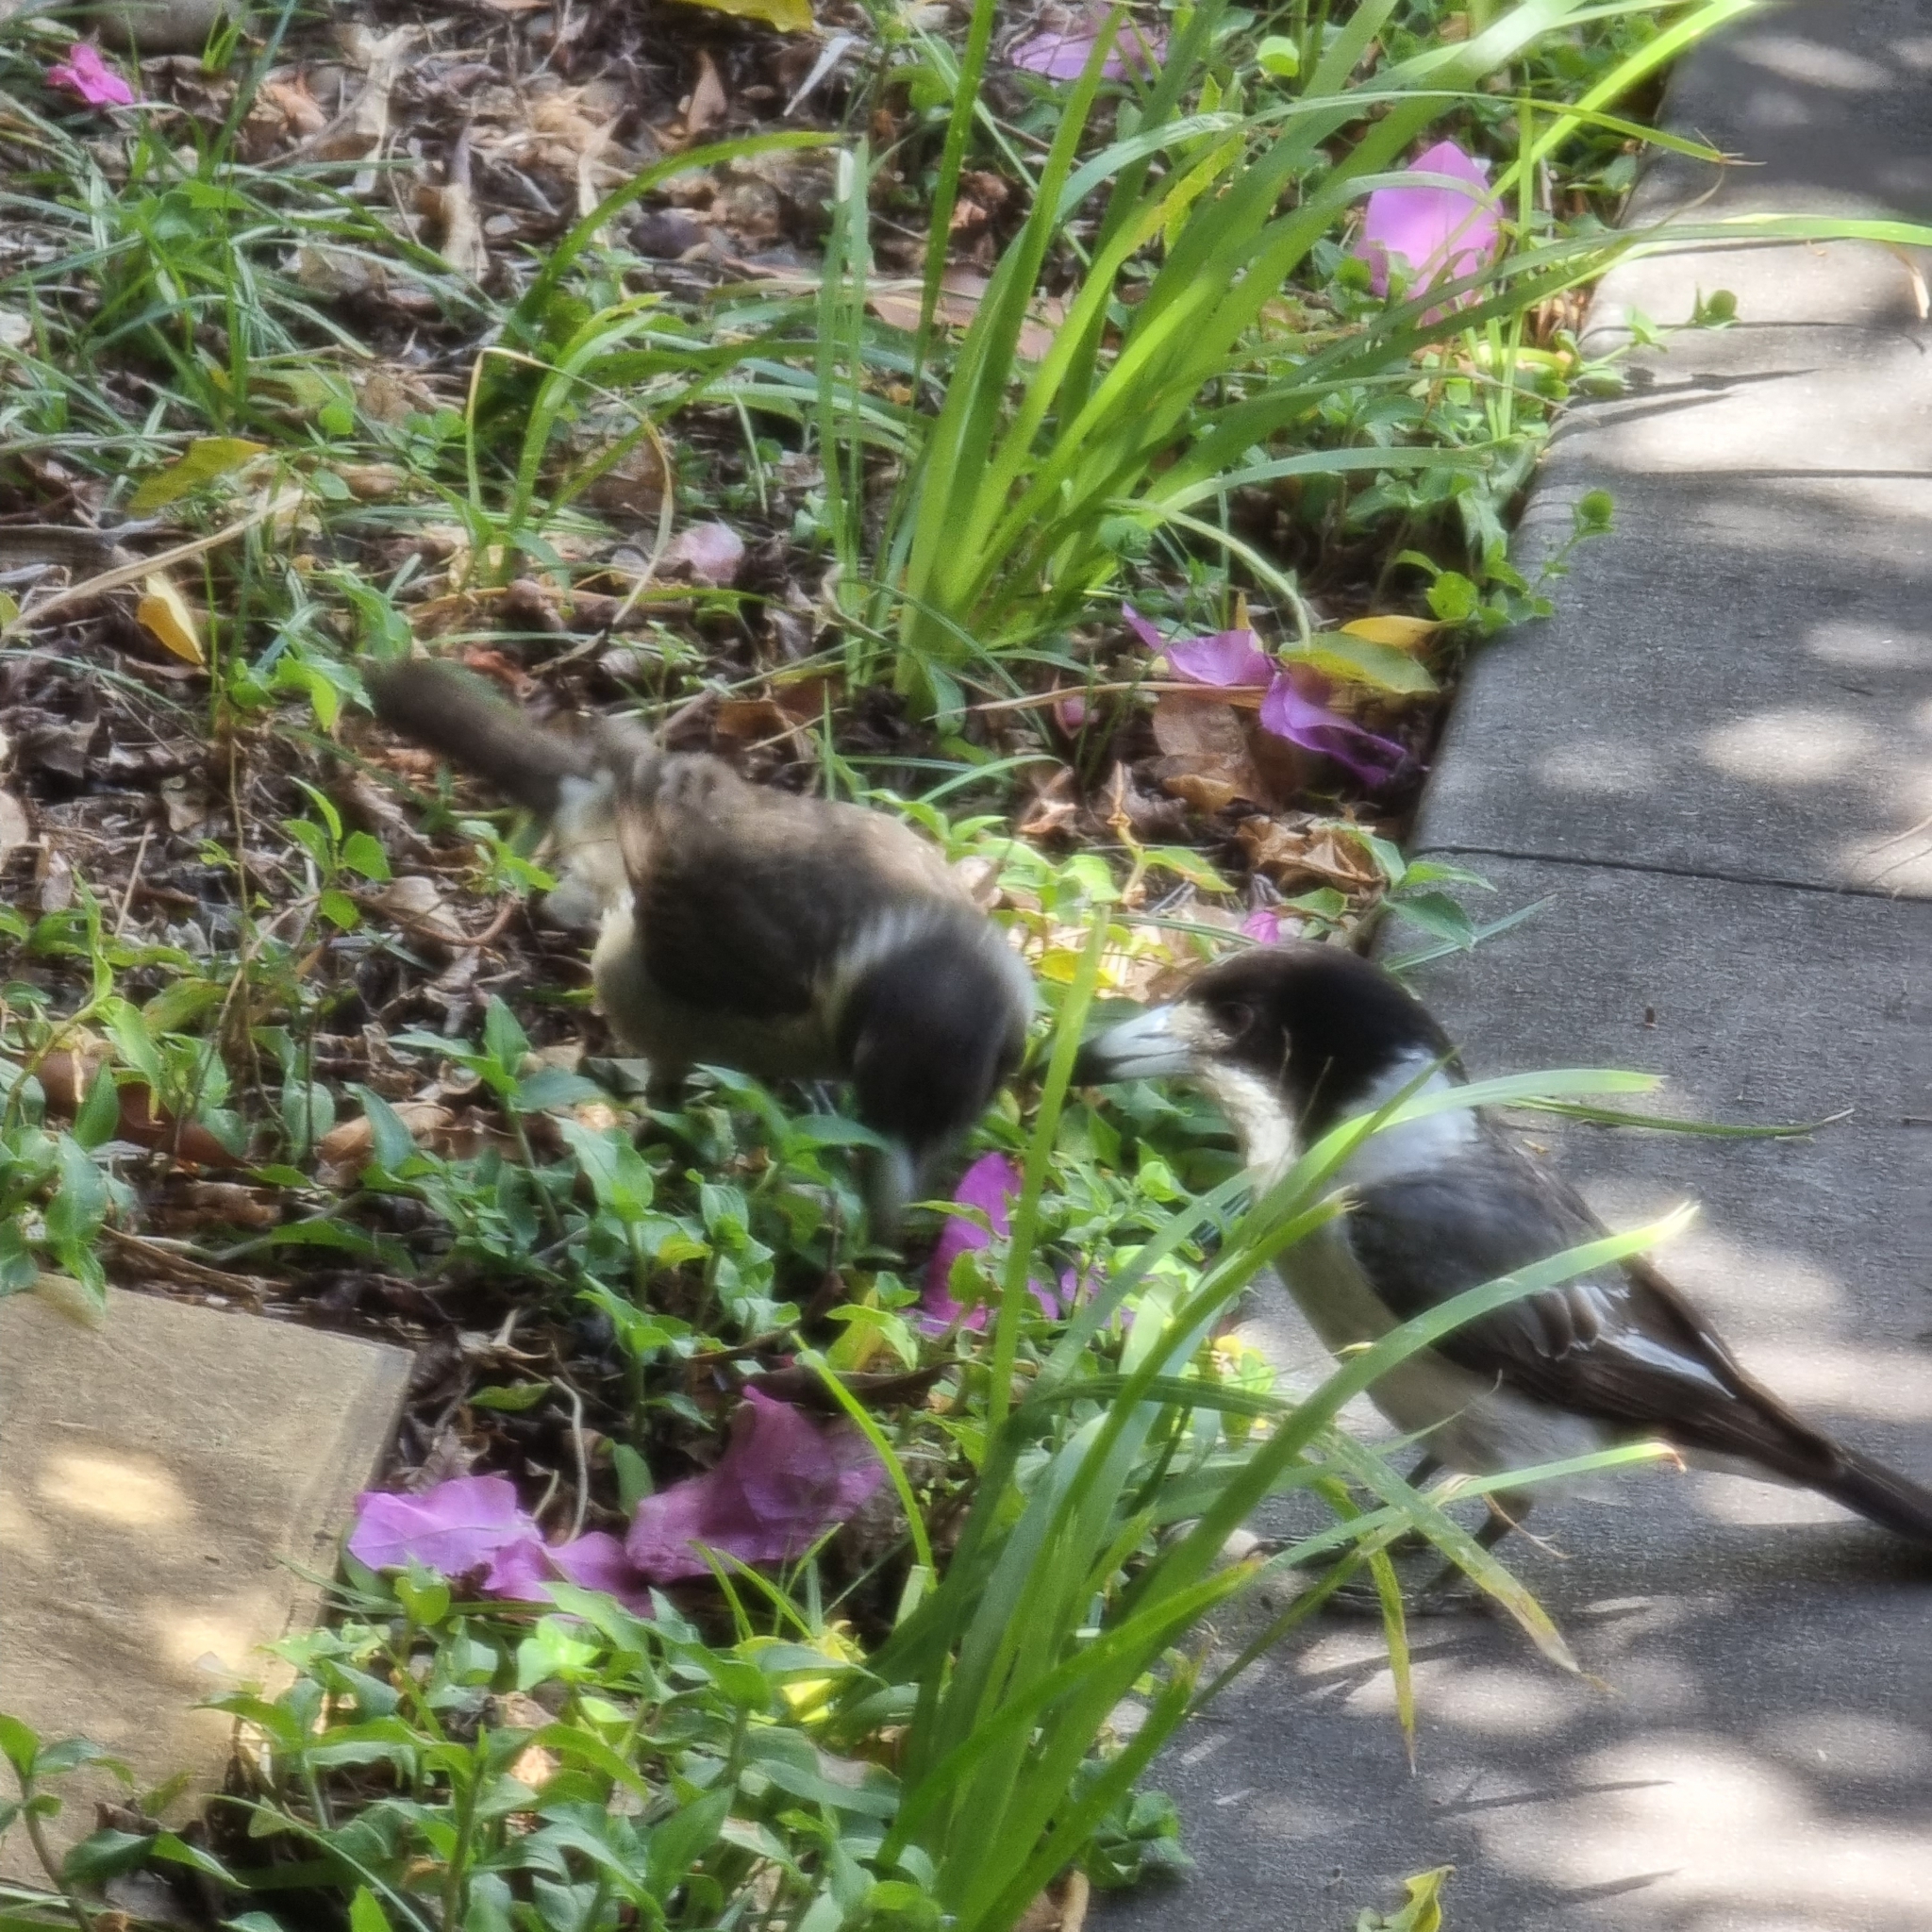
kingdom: Animalia
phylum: Chordata
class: Aves
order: Passeriformes
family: Cracticidae
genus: Cracticus
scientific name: Cracticus torquatus
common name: Grey butcherbird
